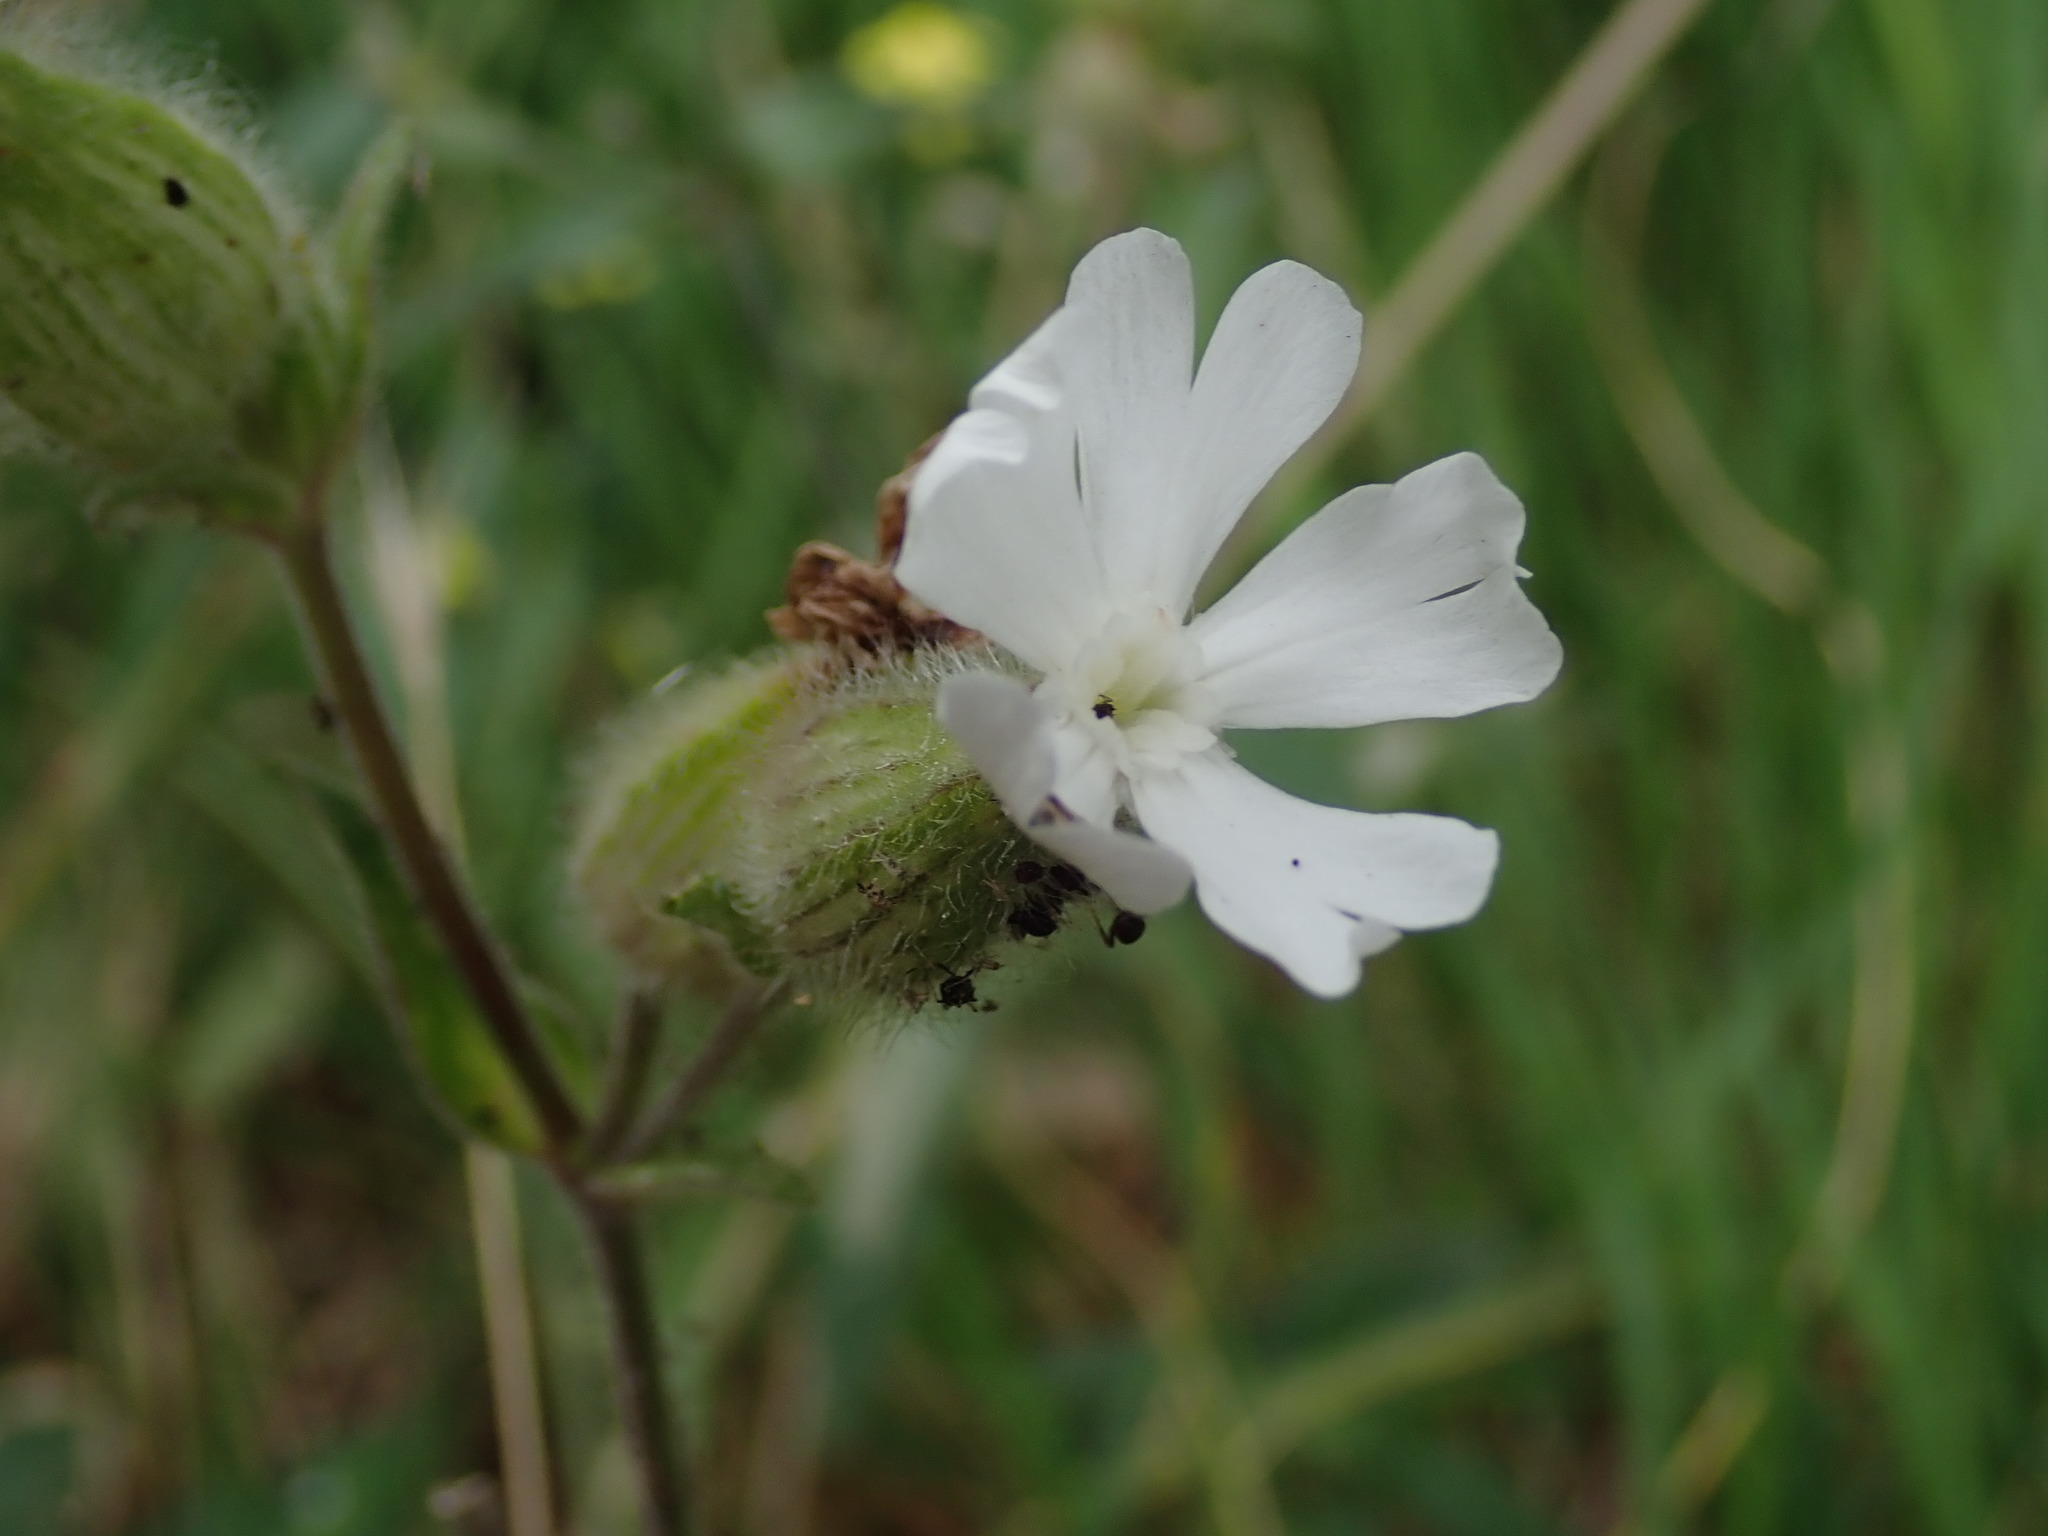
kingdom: Plantae
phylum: Tracheophyta
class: Magnoliopsida
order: Caryophyllales
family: Caryophyllaceae
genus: Silene
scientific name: Silene latifolia
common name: White campion
